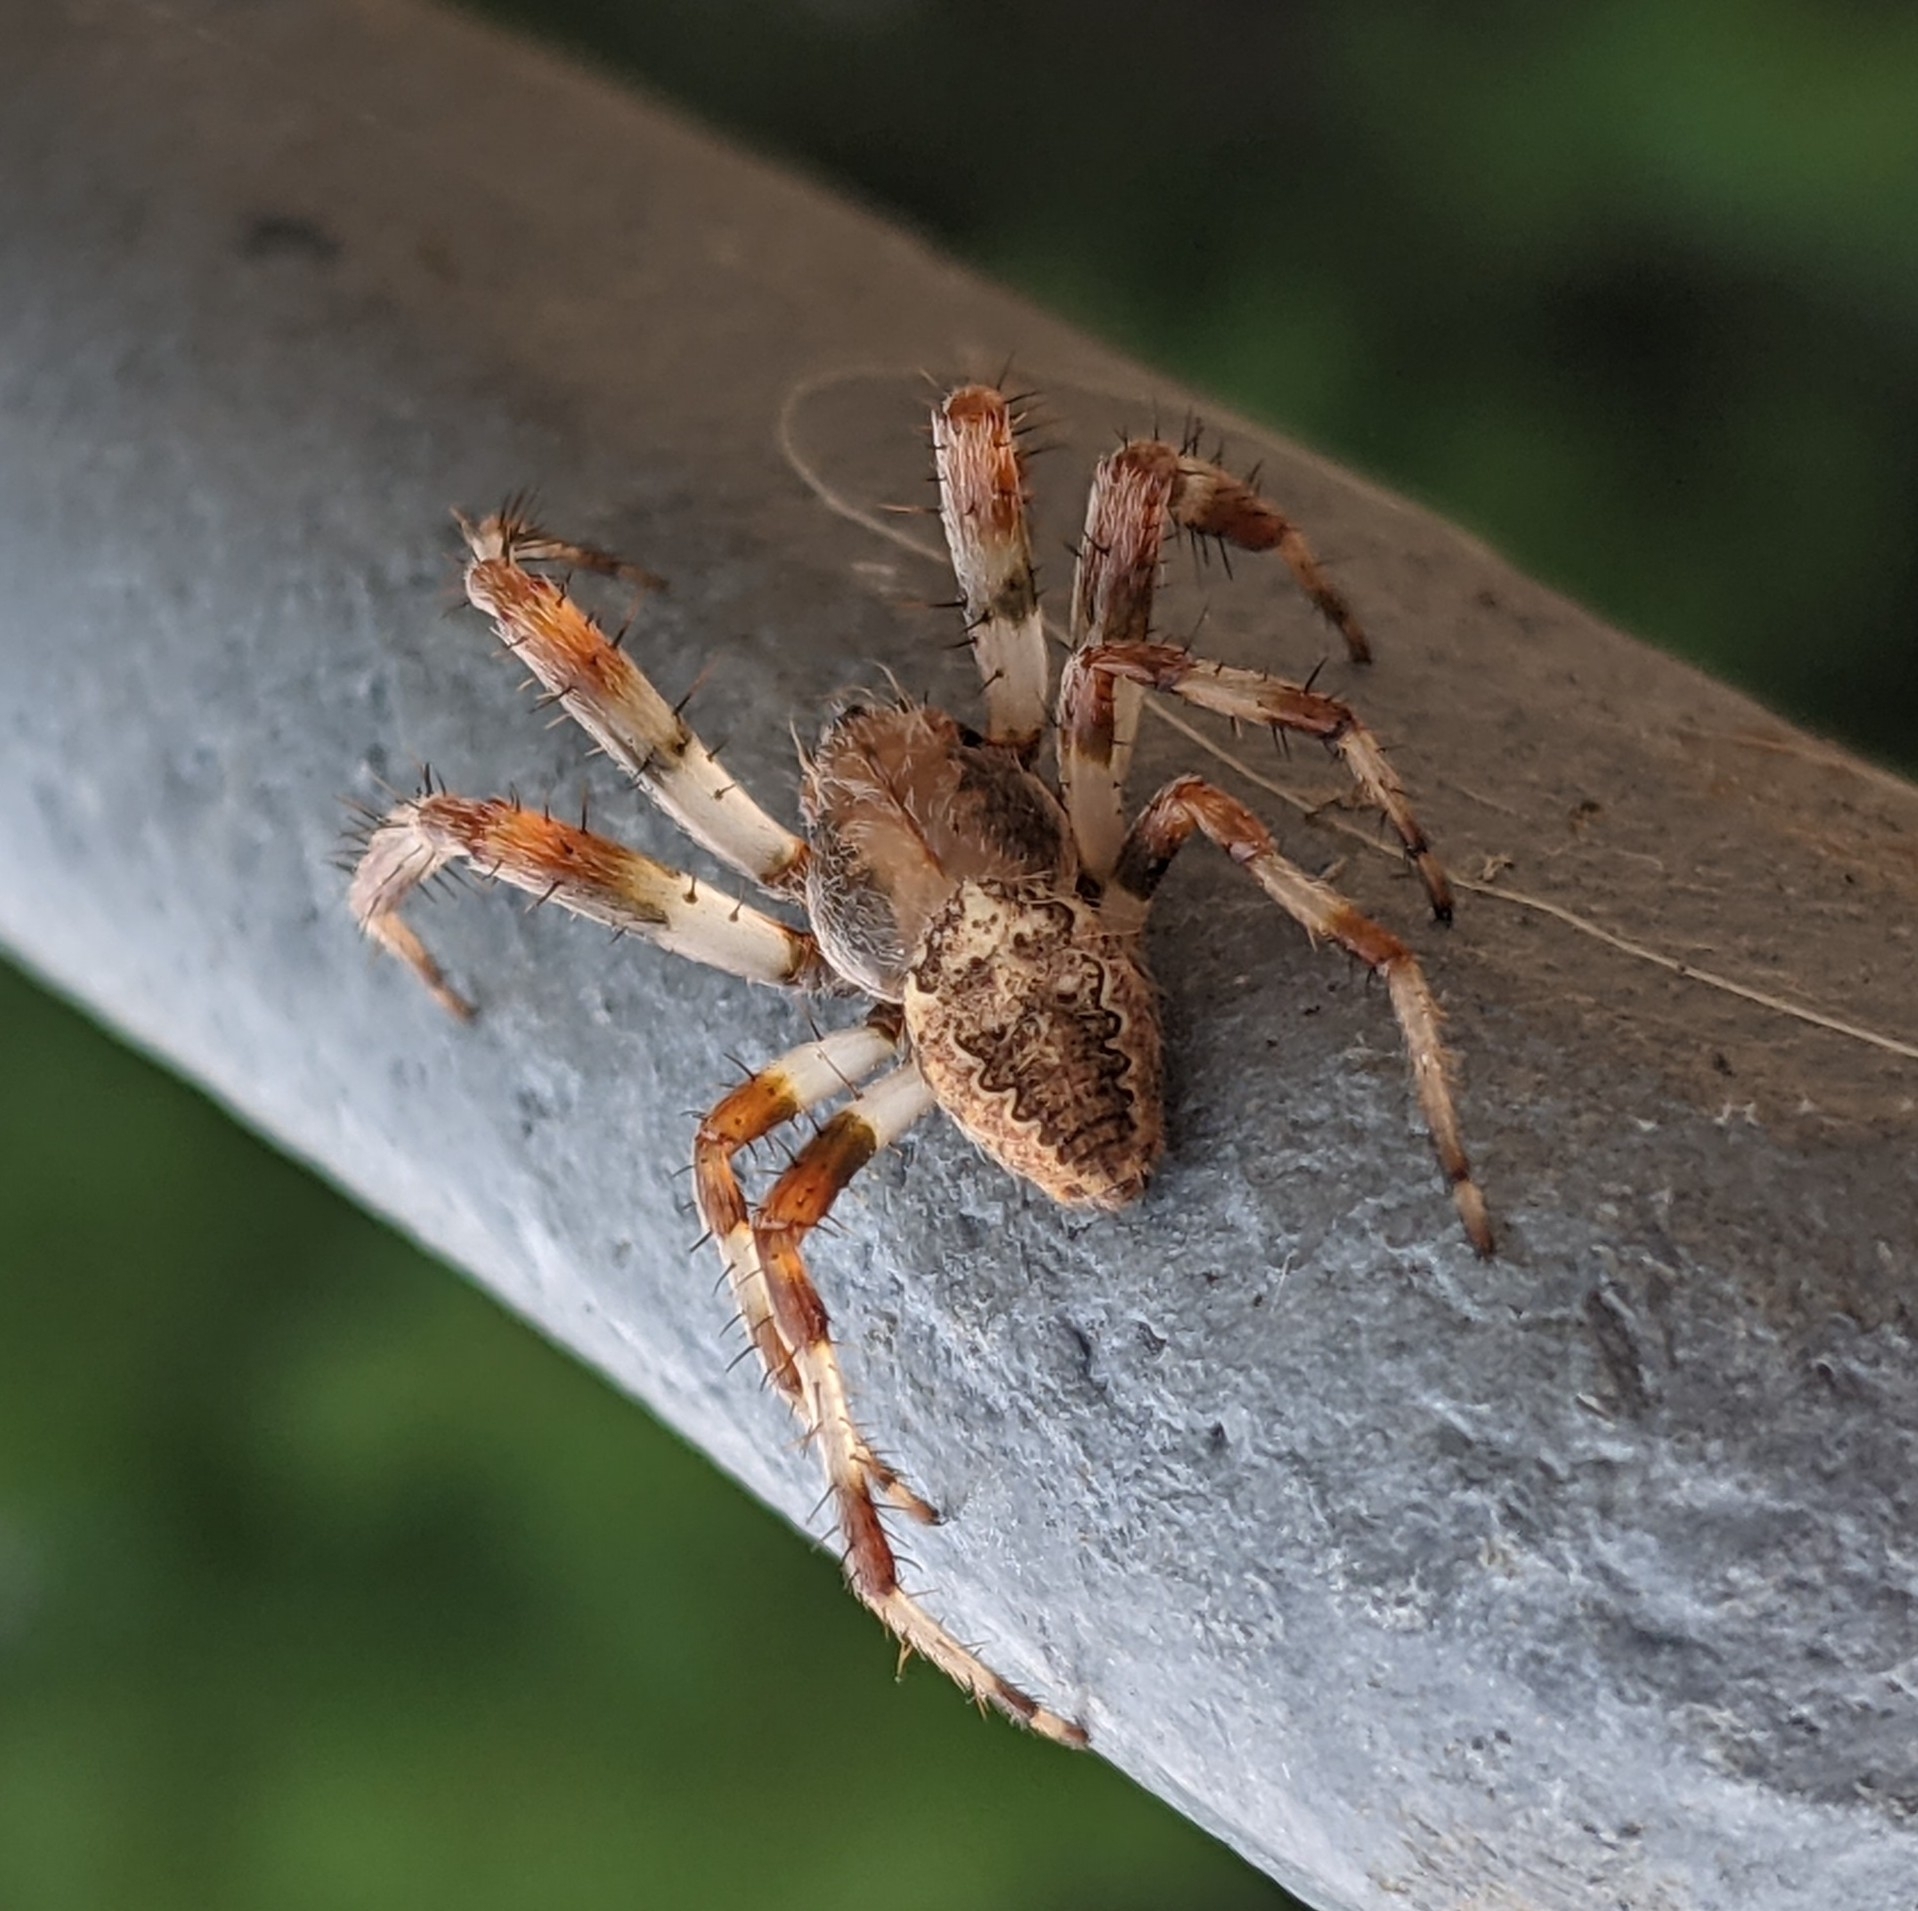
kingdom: Animalia
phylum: Arthropoda
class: Arachnida
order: Araneae
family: Araneidae
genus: Araneus
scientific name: Araneus marmoreus
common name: Marbled orbweaver
